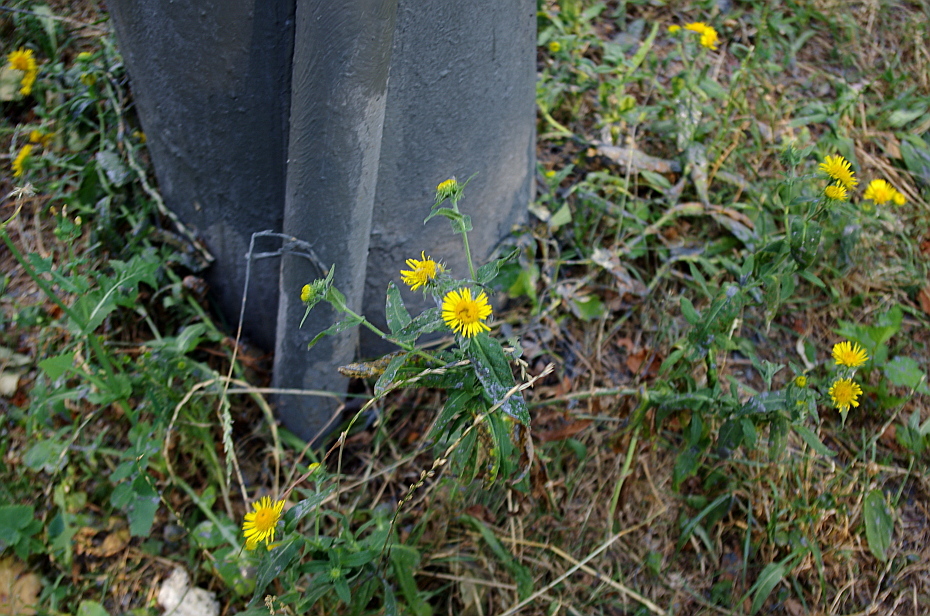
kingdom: Plantae
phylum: Tracheophyta
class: Magnoliopsida
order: Asterales
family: Asteraceae
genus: Pentanema
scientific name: Pentanema britannicum
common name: British elecampane
